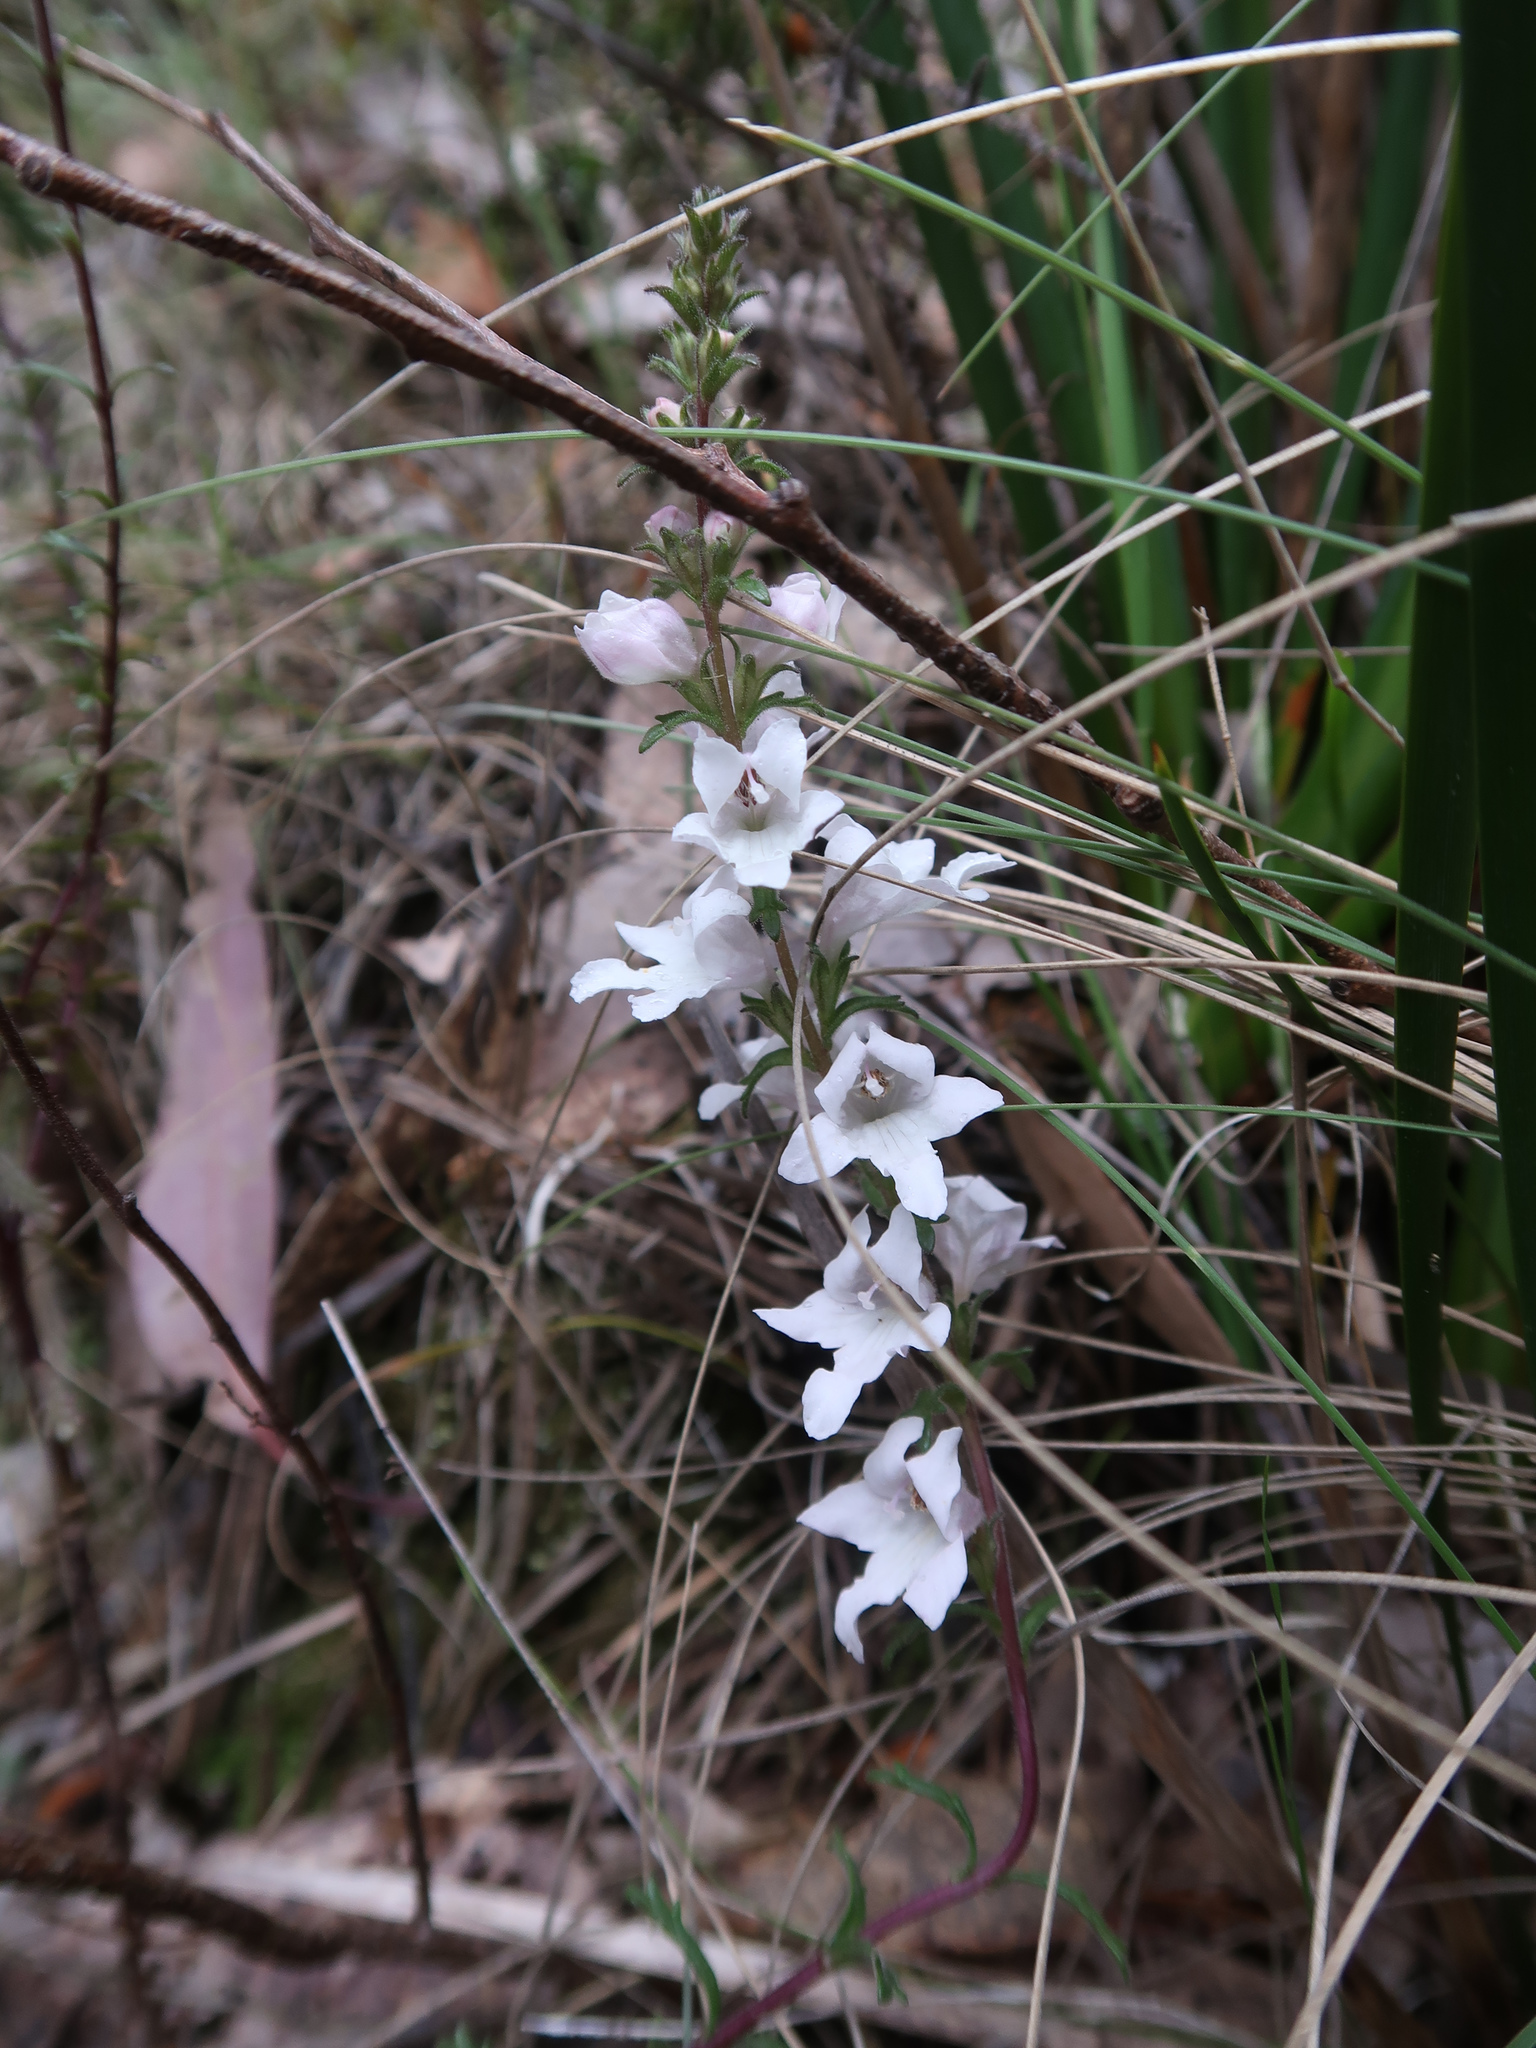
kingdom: Plantae
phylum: Tracheophyta
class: Magnoliopsida
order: Lamiales
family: Orobanchaceae
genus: Euphrasia
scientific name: Euphrasia collina
